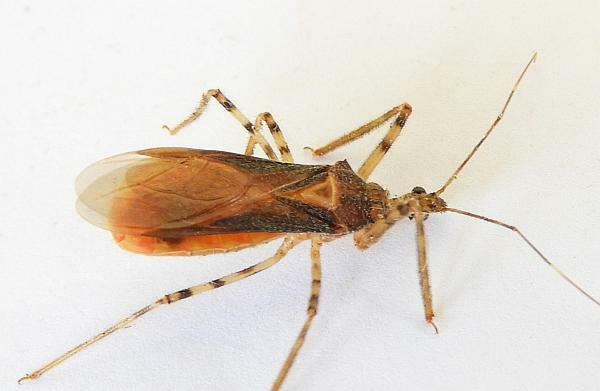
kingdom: Animalia
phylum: Arthropoda
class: Insecta
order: Hemiptera
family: Reduviidae
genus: Castolus
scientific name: Castolus ferox
